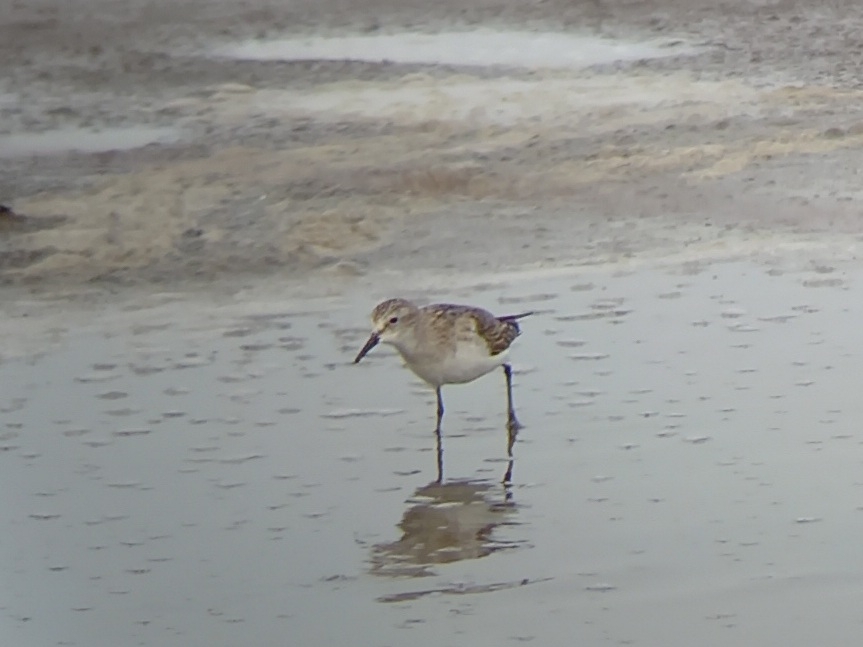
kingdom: Animalia
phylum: Chordata
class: Aves
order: Charadriiformes
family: Scolopacidae
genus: Calidris
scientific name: Calidris minuta
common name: Little stint
